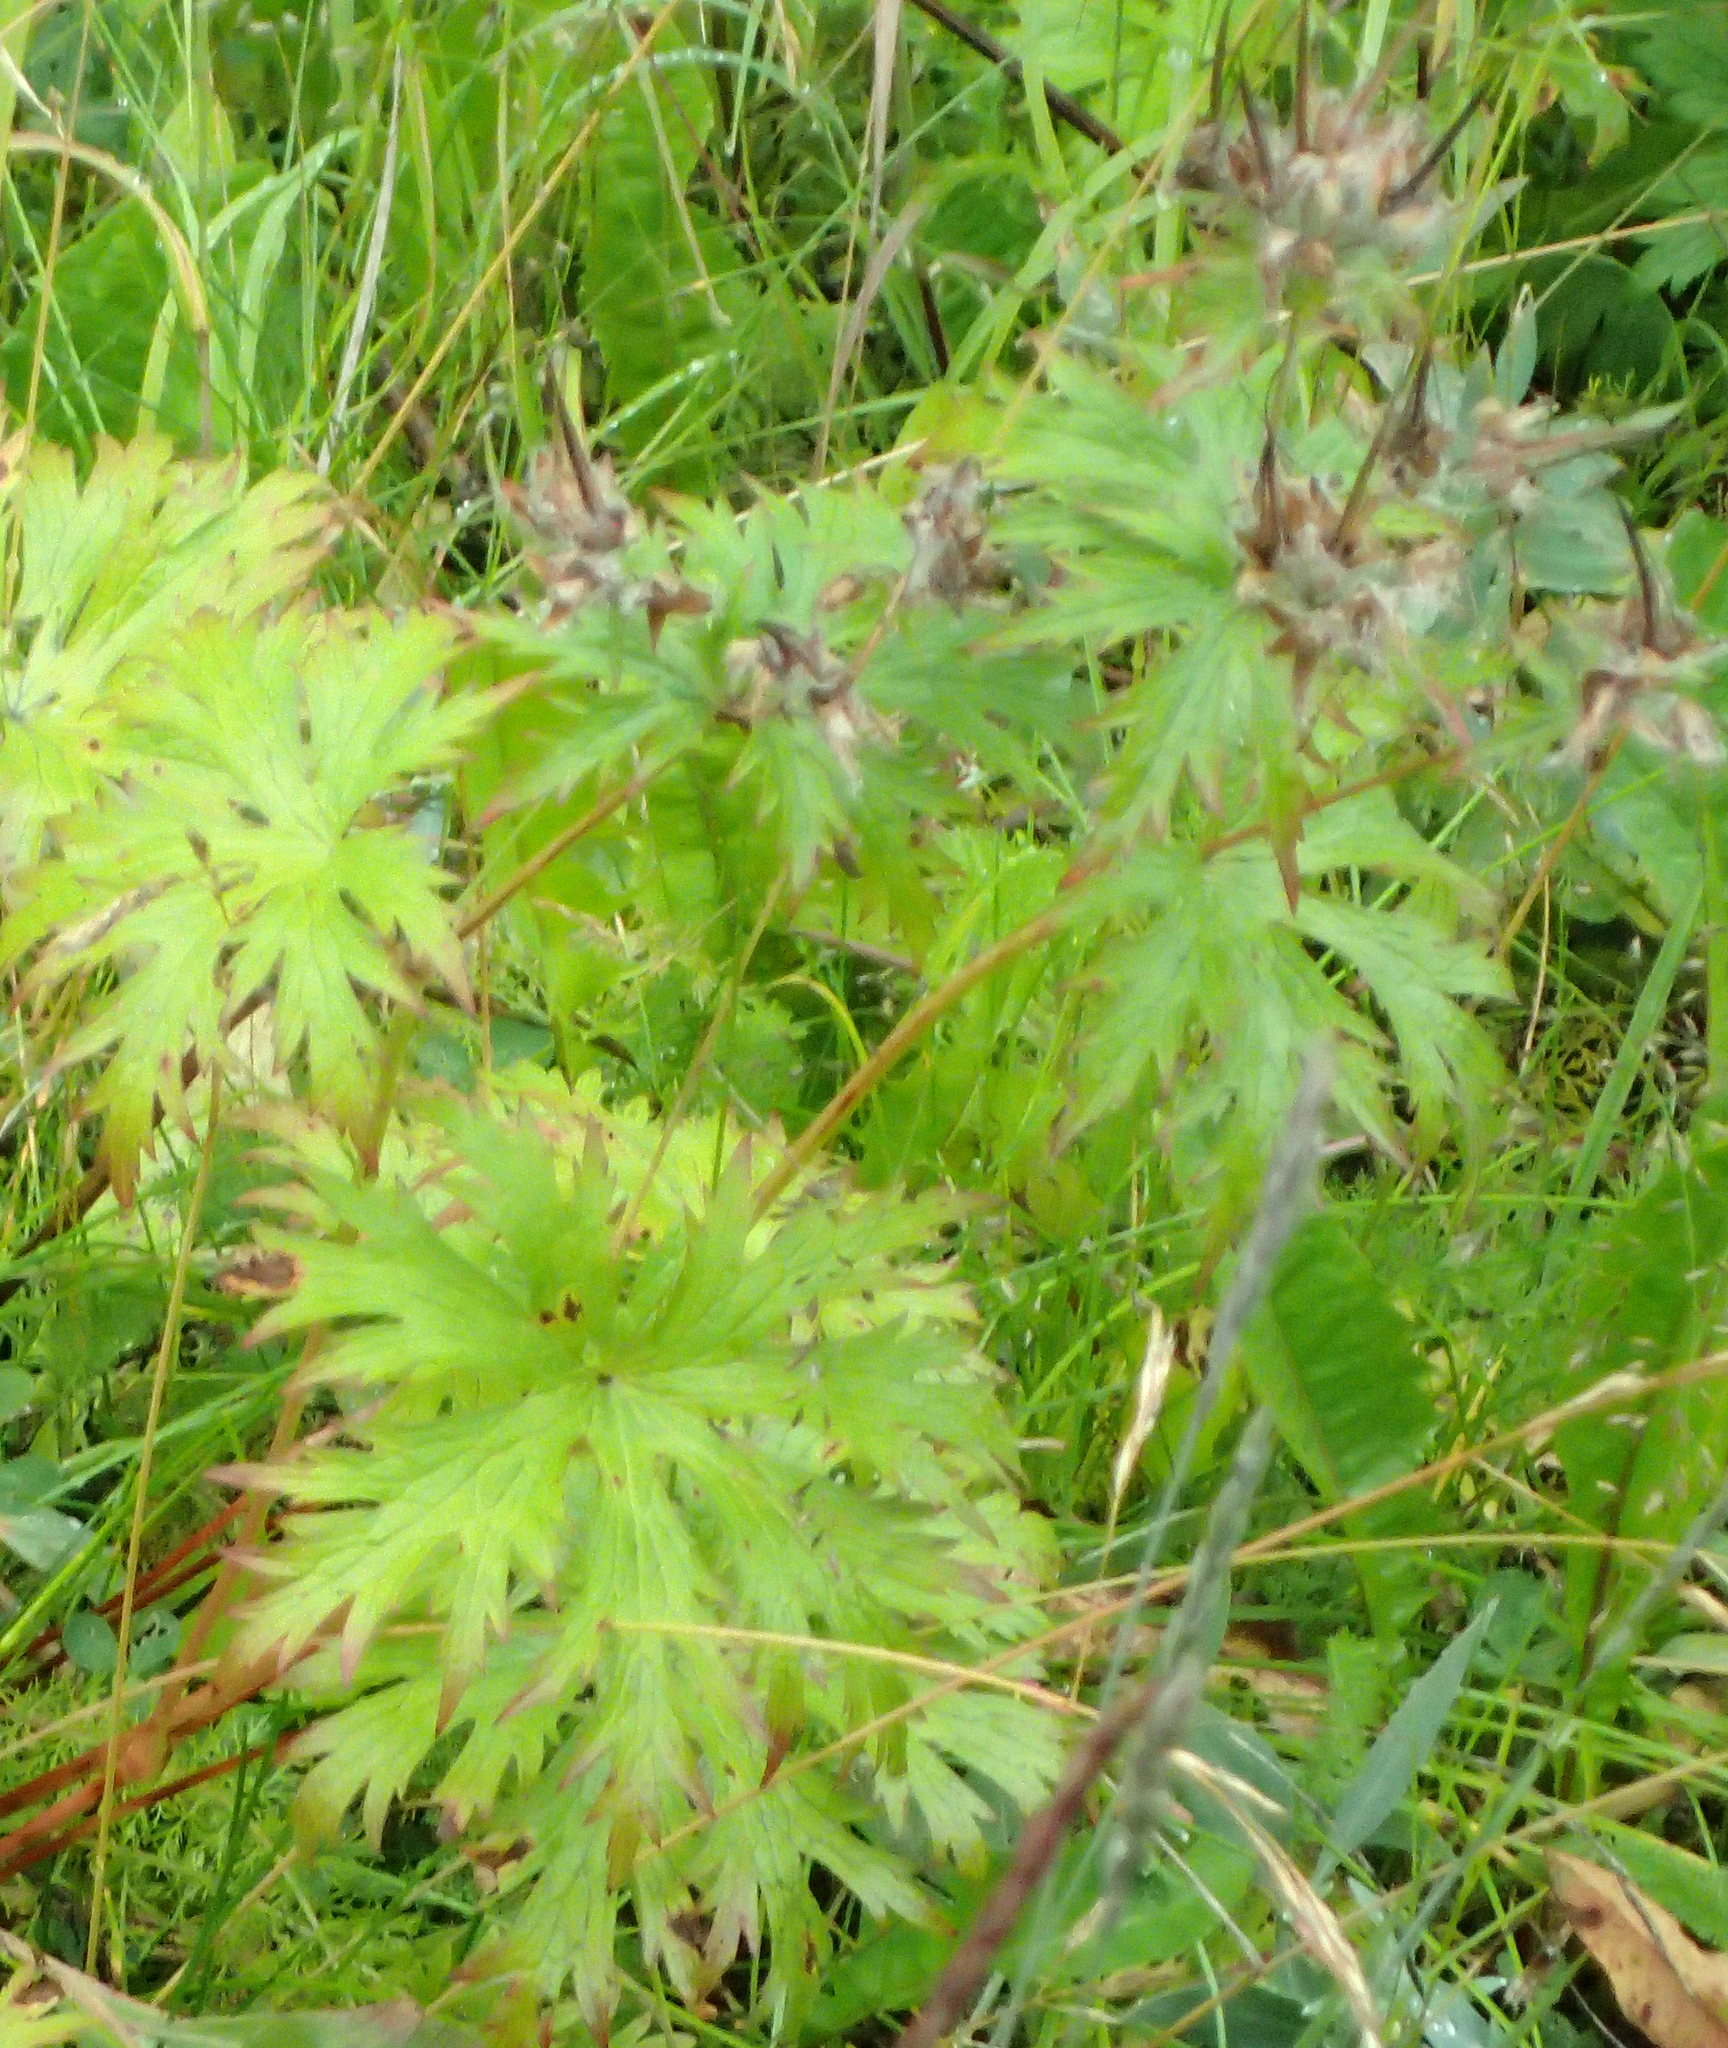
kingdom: Plantae
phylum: Tracheophyta
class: Magnoliopsida
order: Geraniales
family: Geraniaceae
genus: Geranium
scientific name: Geranium erianthum
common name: Northern crane's-bill
